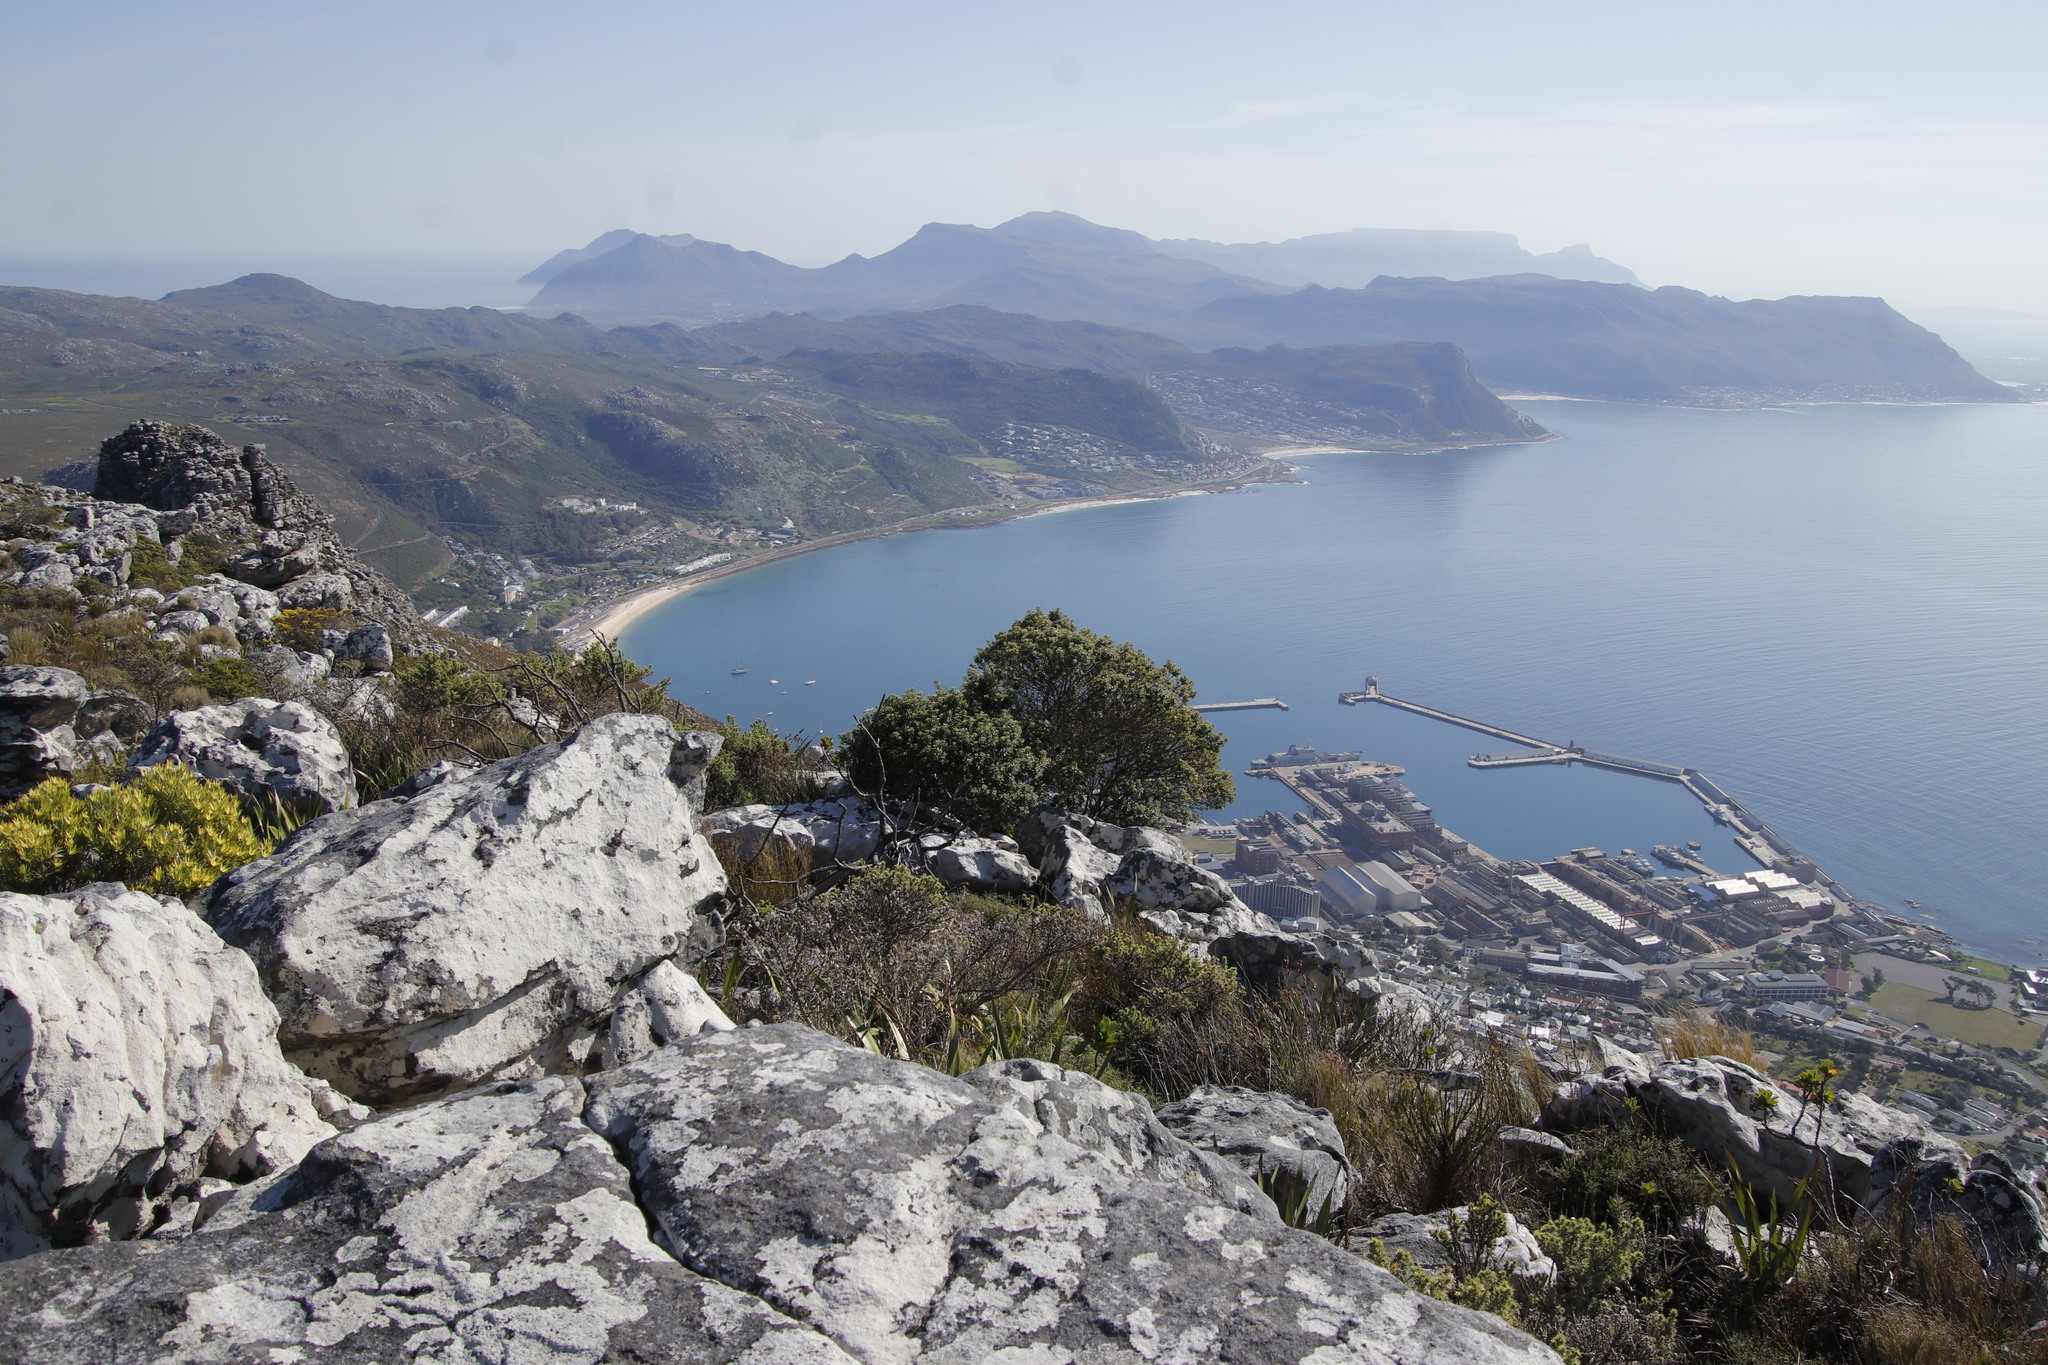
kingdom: Plantae
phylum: Tracheophyta
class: Magnoliopsida
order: Rosales
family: Rhamnaceae
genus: Phylica
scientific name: Phylica buxifolia
